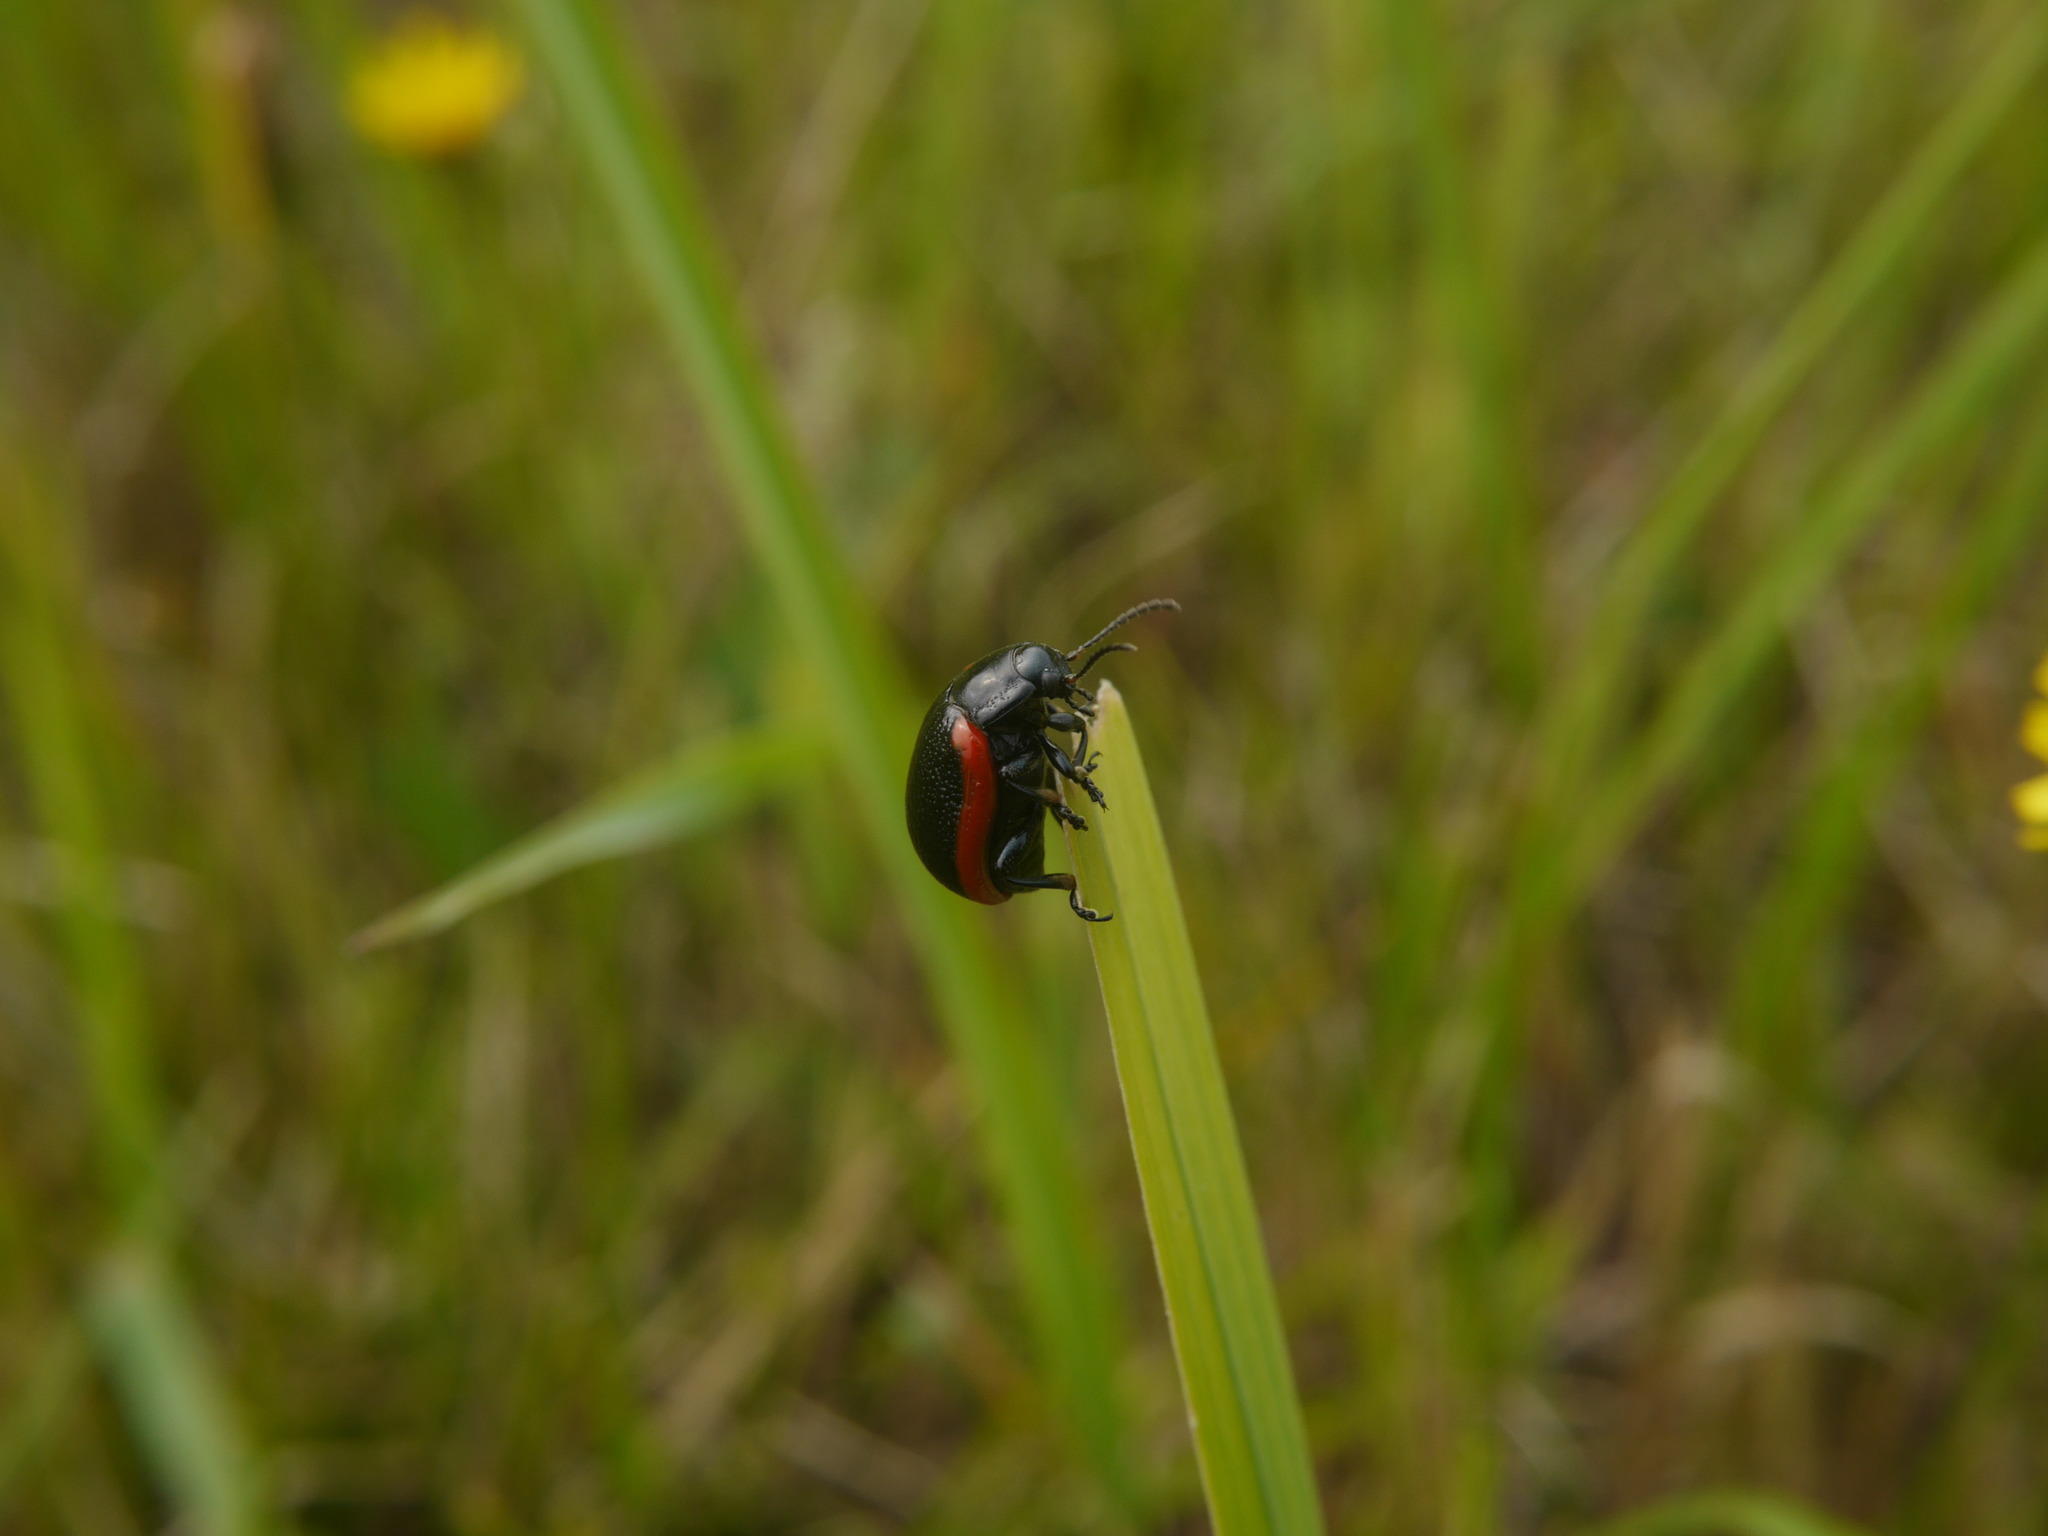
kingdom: Animalia
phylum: Arthropoda
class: Insecta
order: Coleoptera
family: Chrysomelidae
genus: Chrysolina
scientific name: Chrysolina sanguinolenta
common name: Toadflax leaf beetle
